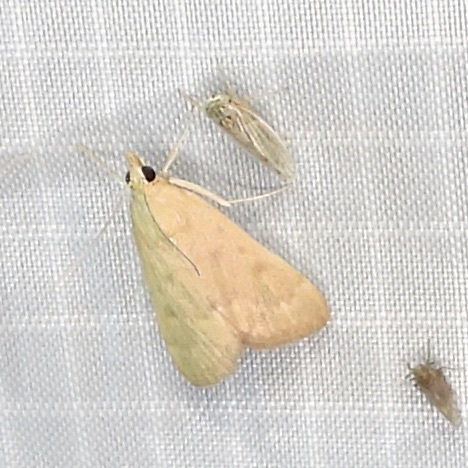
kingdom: Animalia
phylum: Arthropoda
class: Insecta
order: Lepidoptera
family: Crambidae
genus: Achyra
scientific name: Achyra rantalis
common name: Garden webworm
